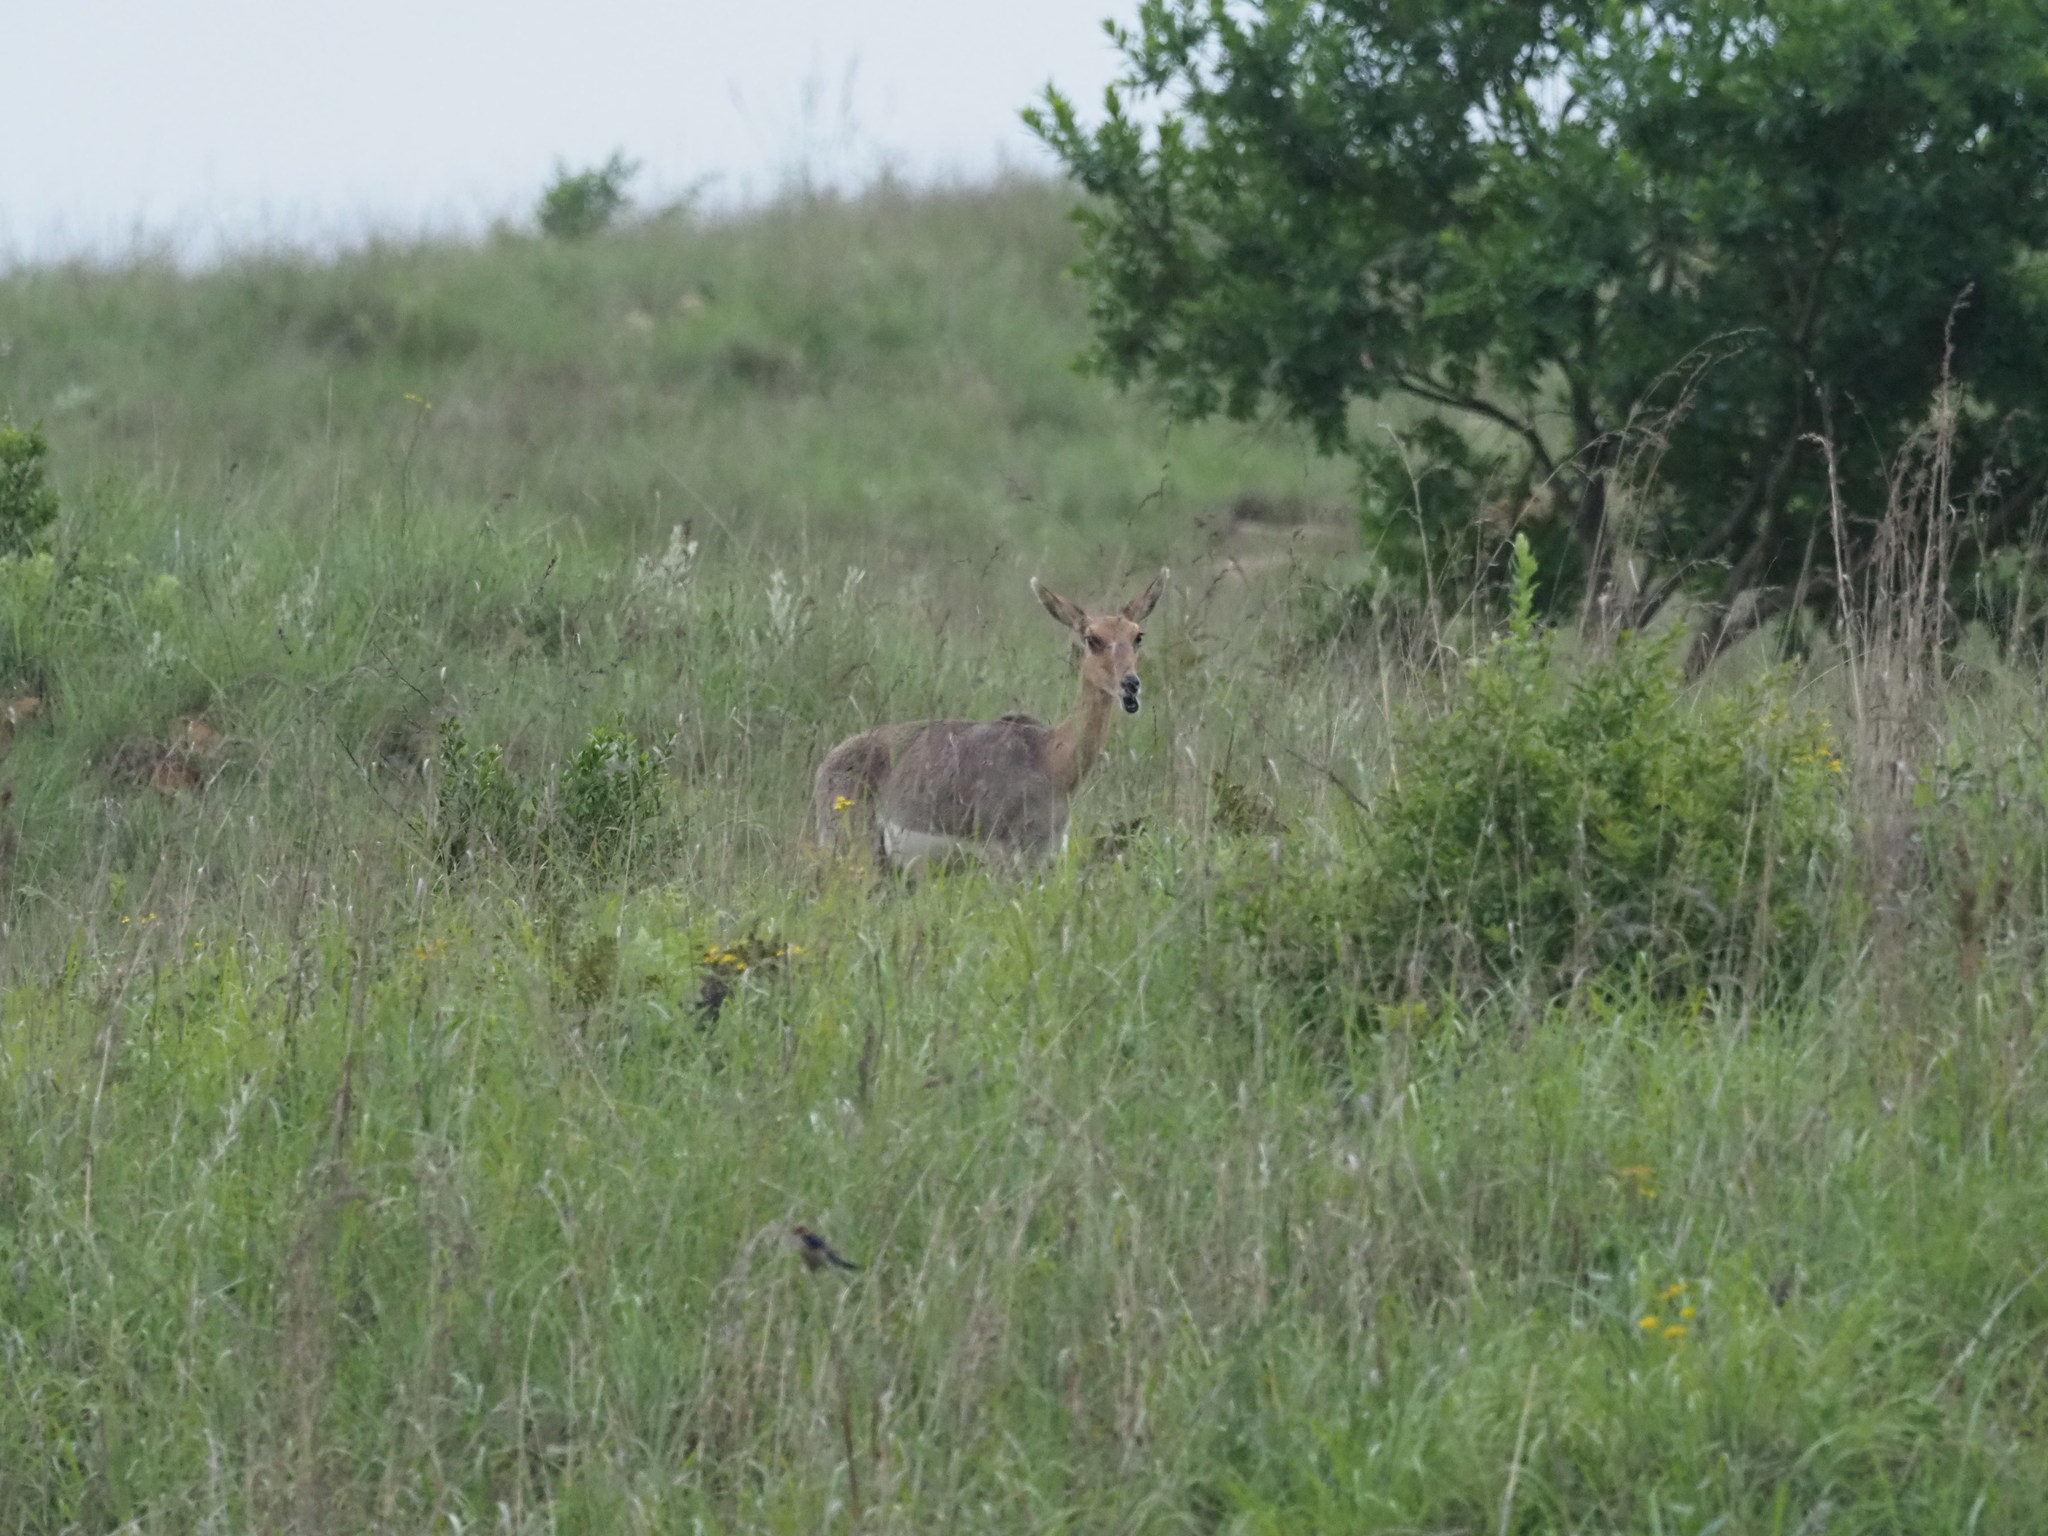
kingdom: Animalia
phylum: Chordata
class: Mammalia
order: Artiodactyla
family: Bovidae
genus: Pelea
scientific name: Pelea capreolus
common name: Common rhebok
